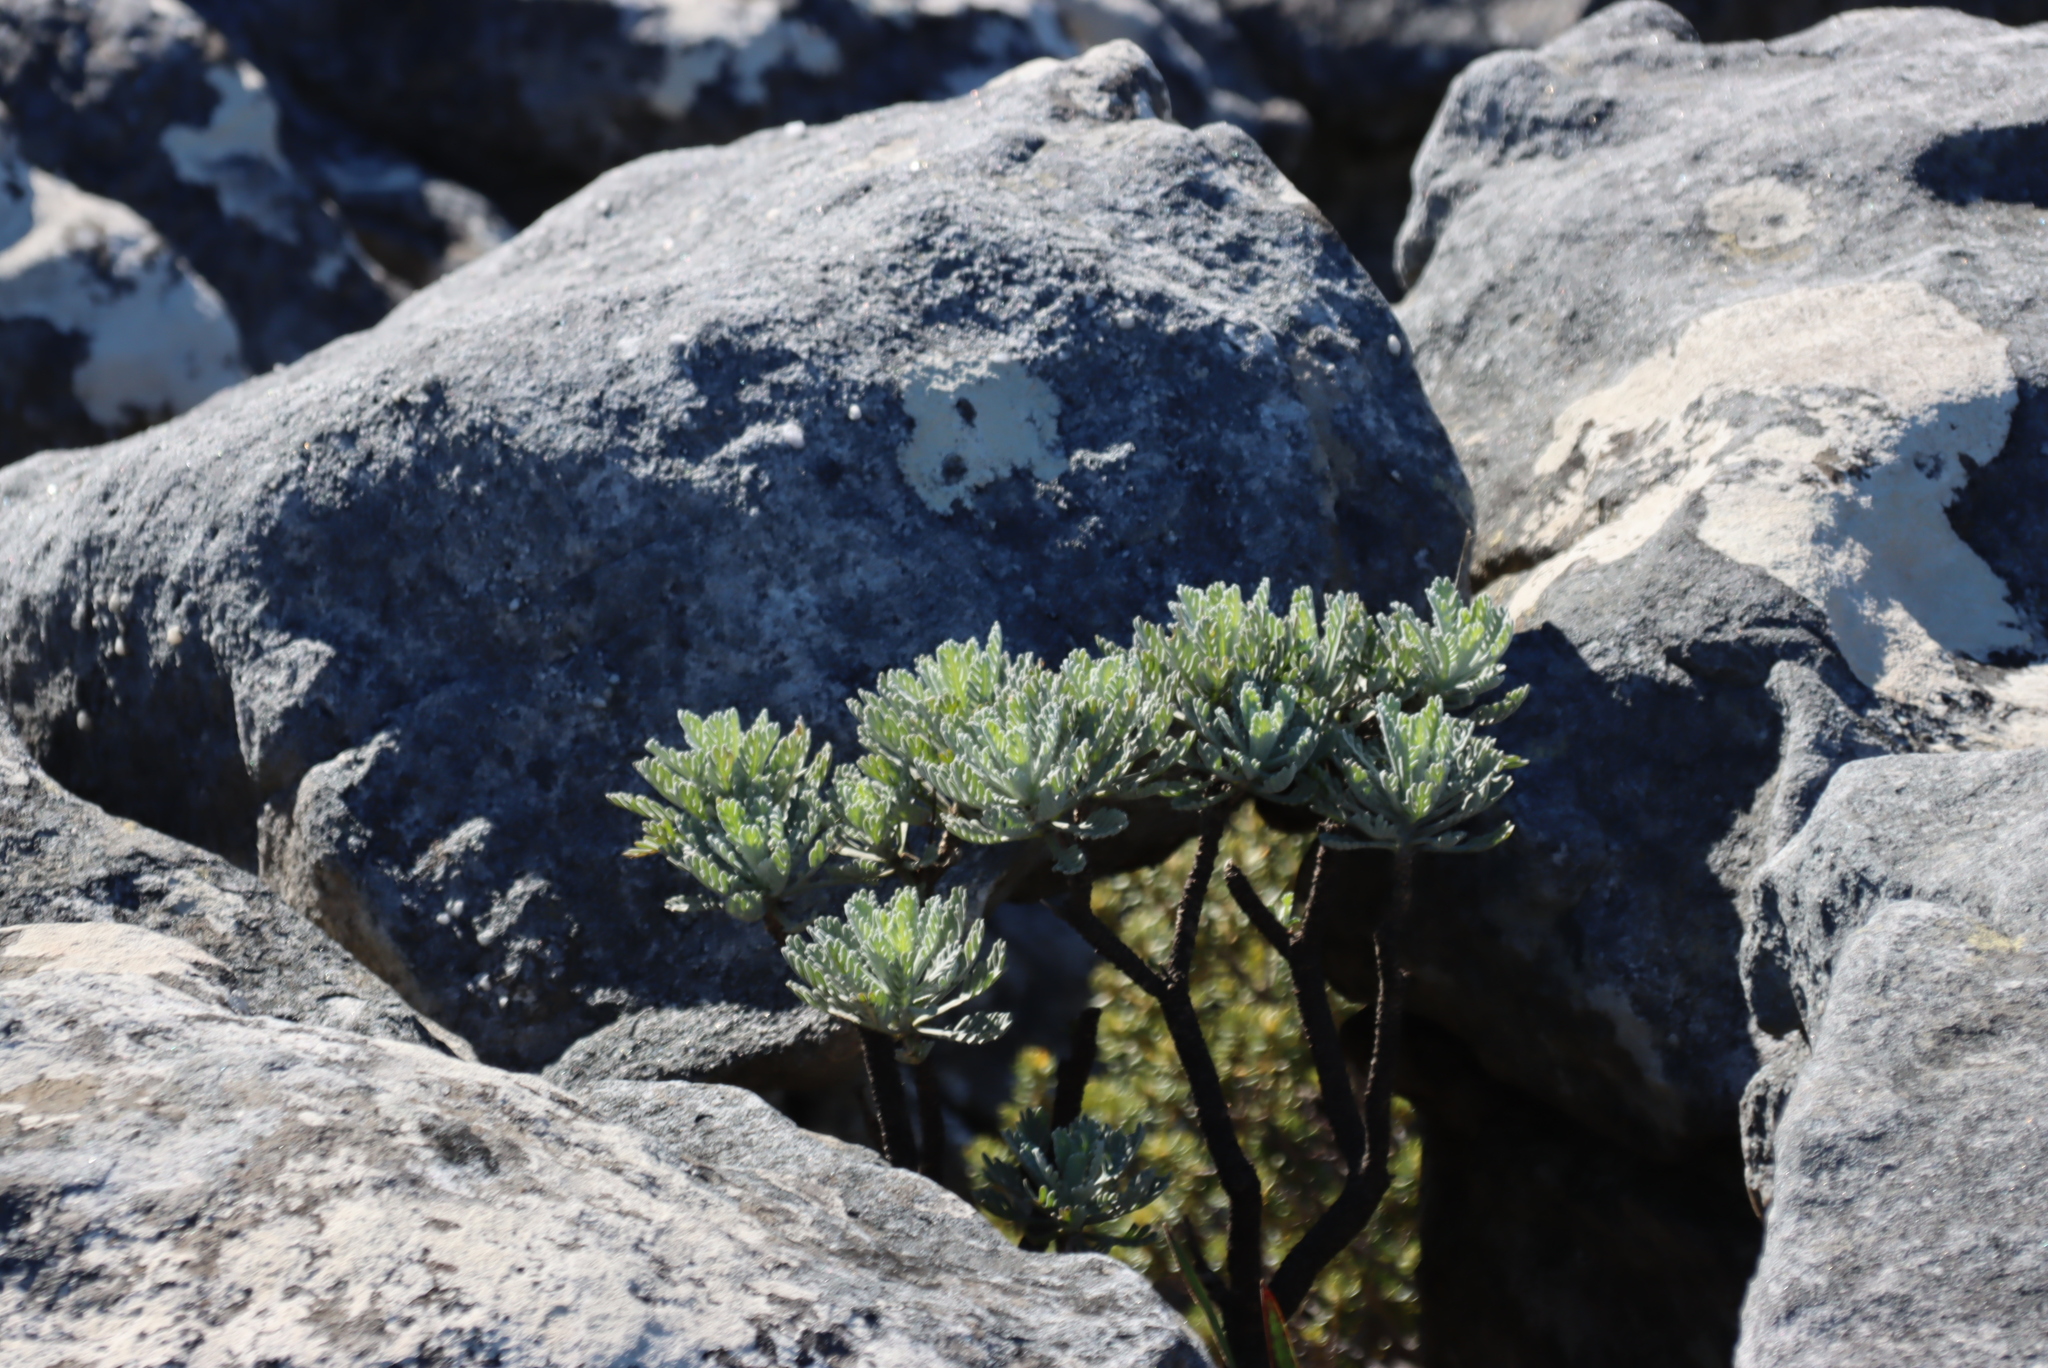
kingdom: Plantae
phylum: Tracheophyta
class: Magnoliopsida
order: Asterales
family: Asteraceae
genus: Euryops
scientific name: Euryops pectinatus
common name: Gray-leaf euryops
